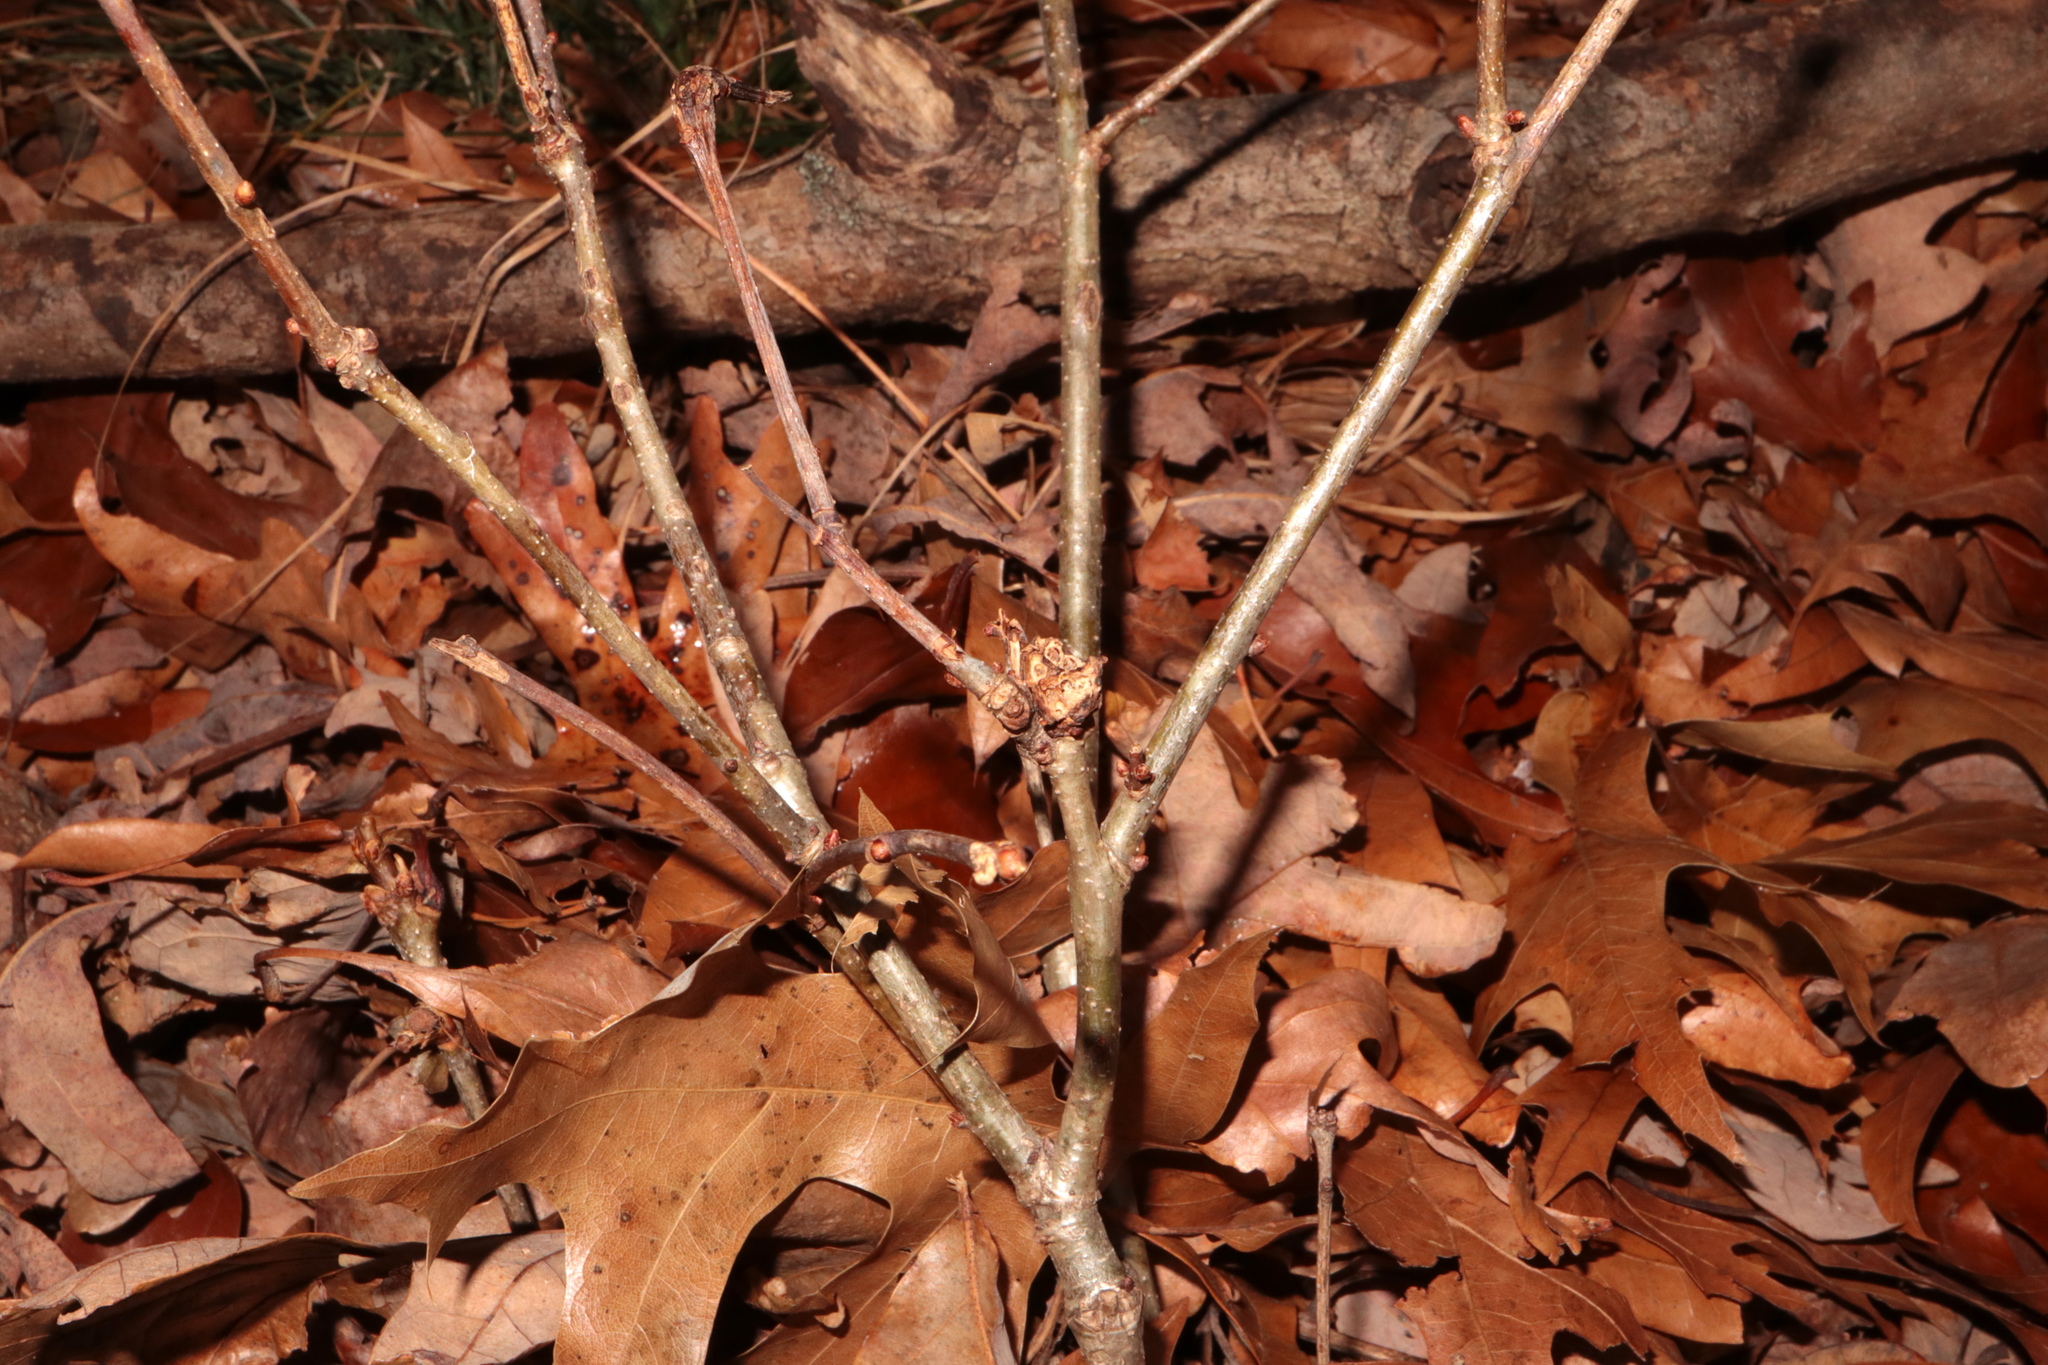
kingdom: Animalia
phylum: Arthropoda
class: Insecta
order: Hymenoptera
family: Cynipidae
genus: Neuroterus
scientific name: Neuroterus quercusbaccarum
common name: Common spangle gall
